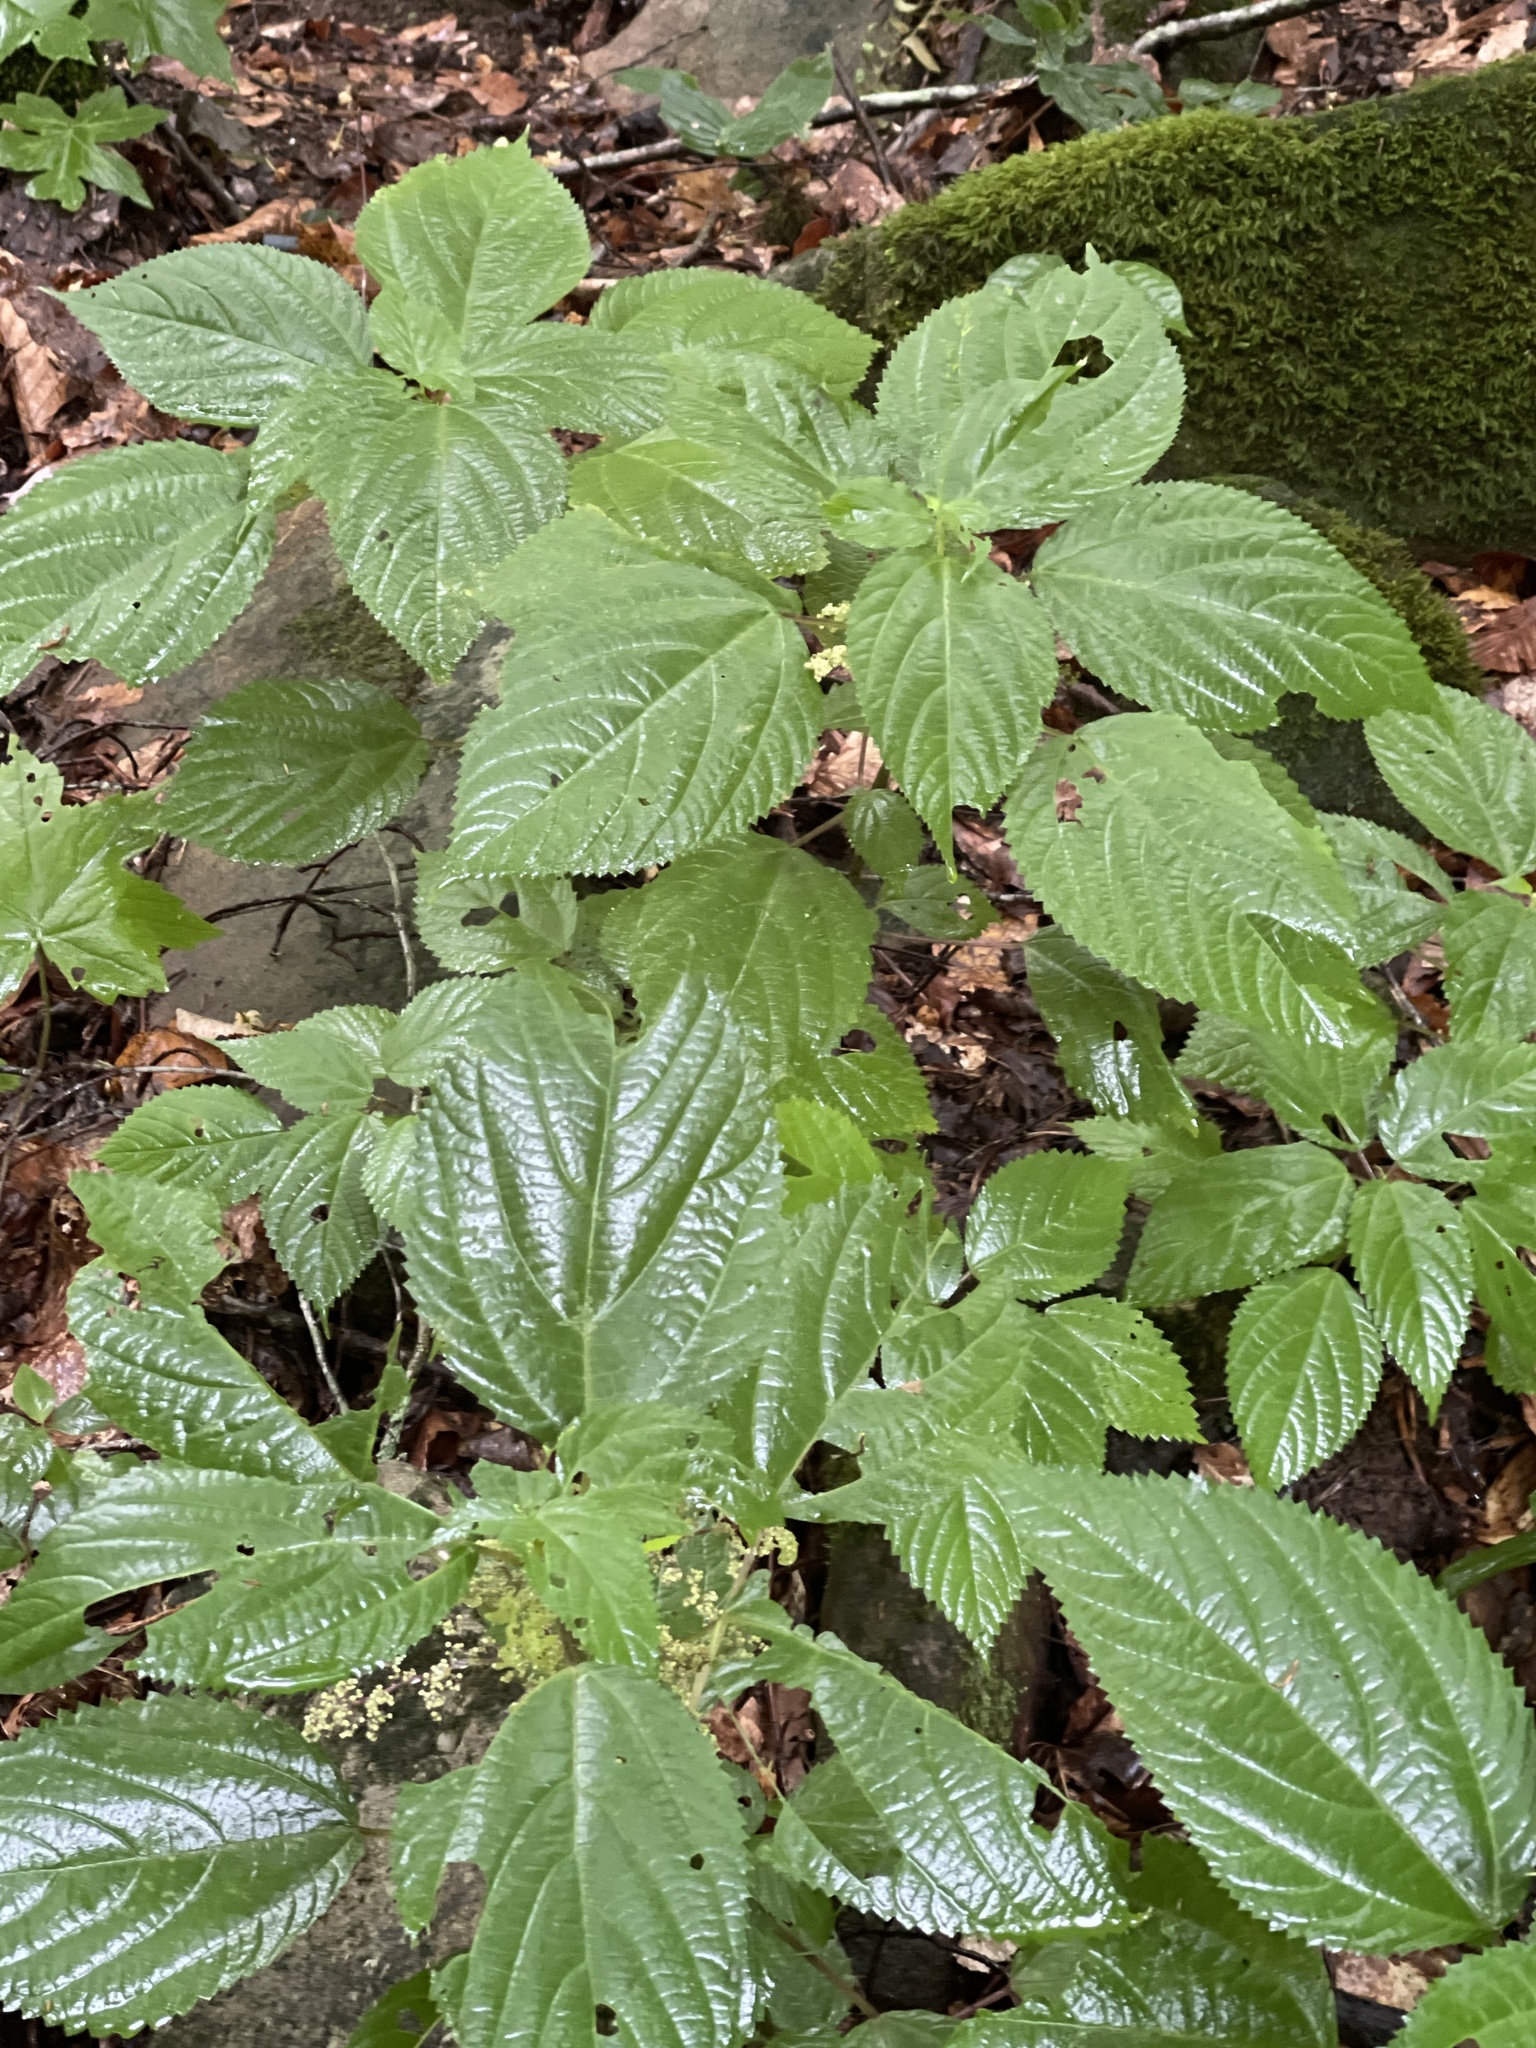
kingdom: Plantae
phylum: Tracheophyta
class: Magnoliopsida
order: Rosales
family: Urticaceae
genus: Laportea
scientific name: Laportea canadensis
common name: Canada nettle
